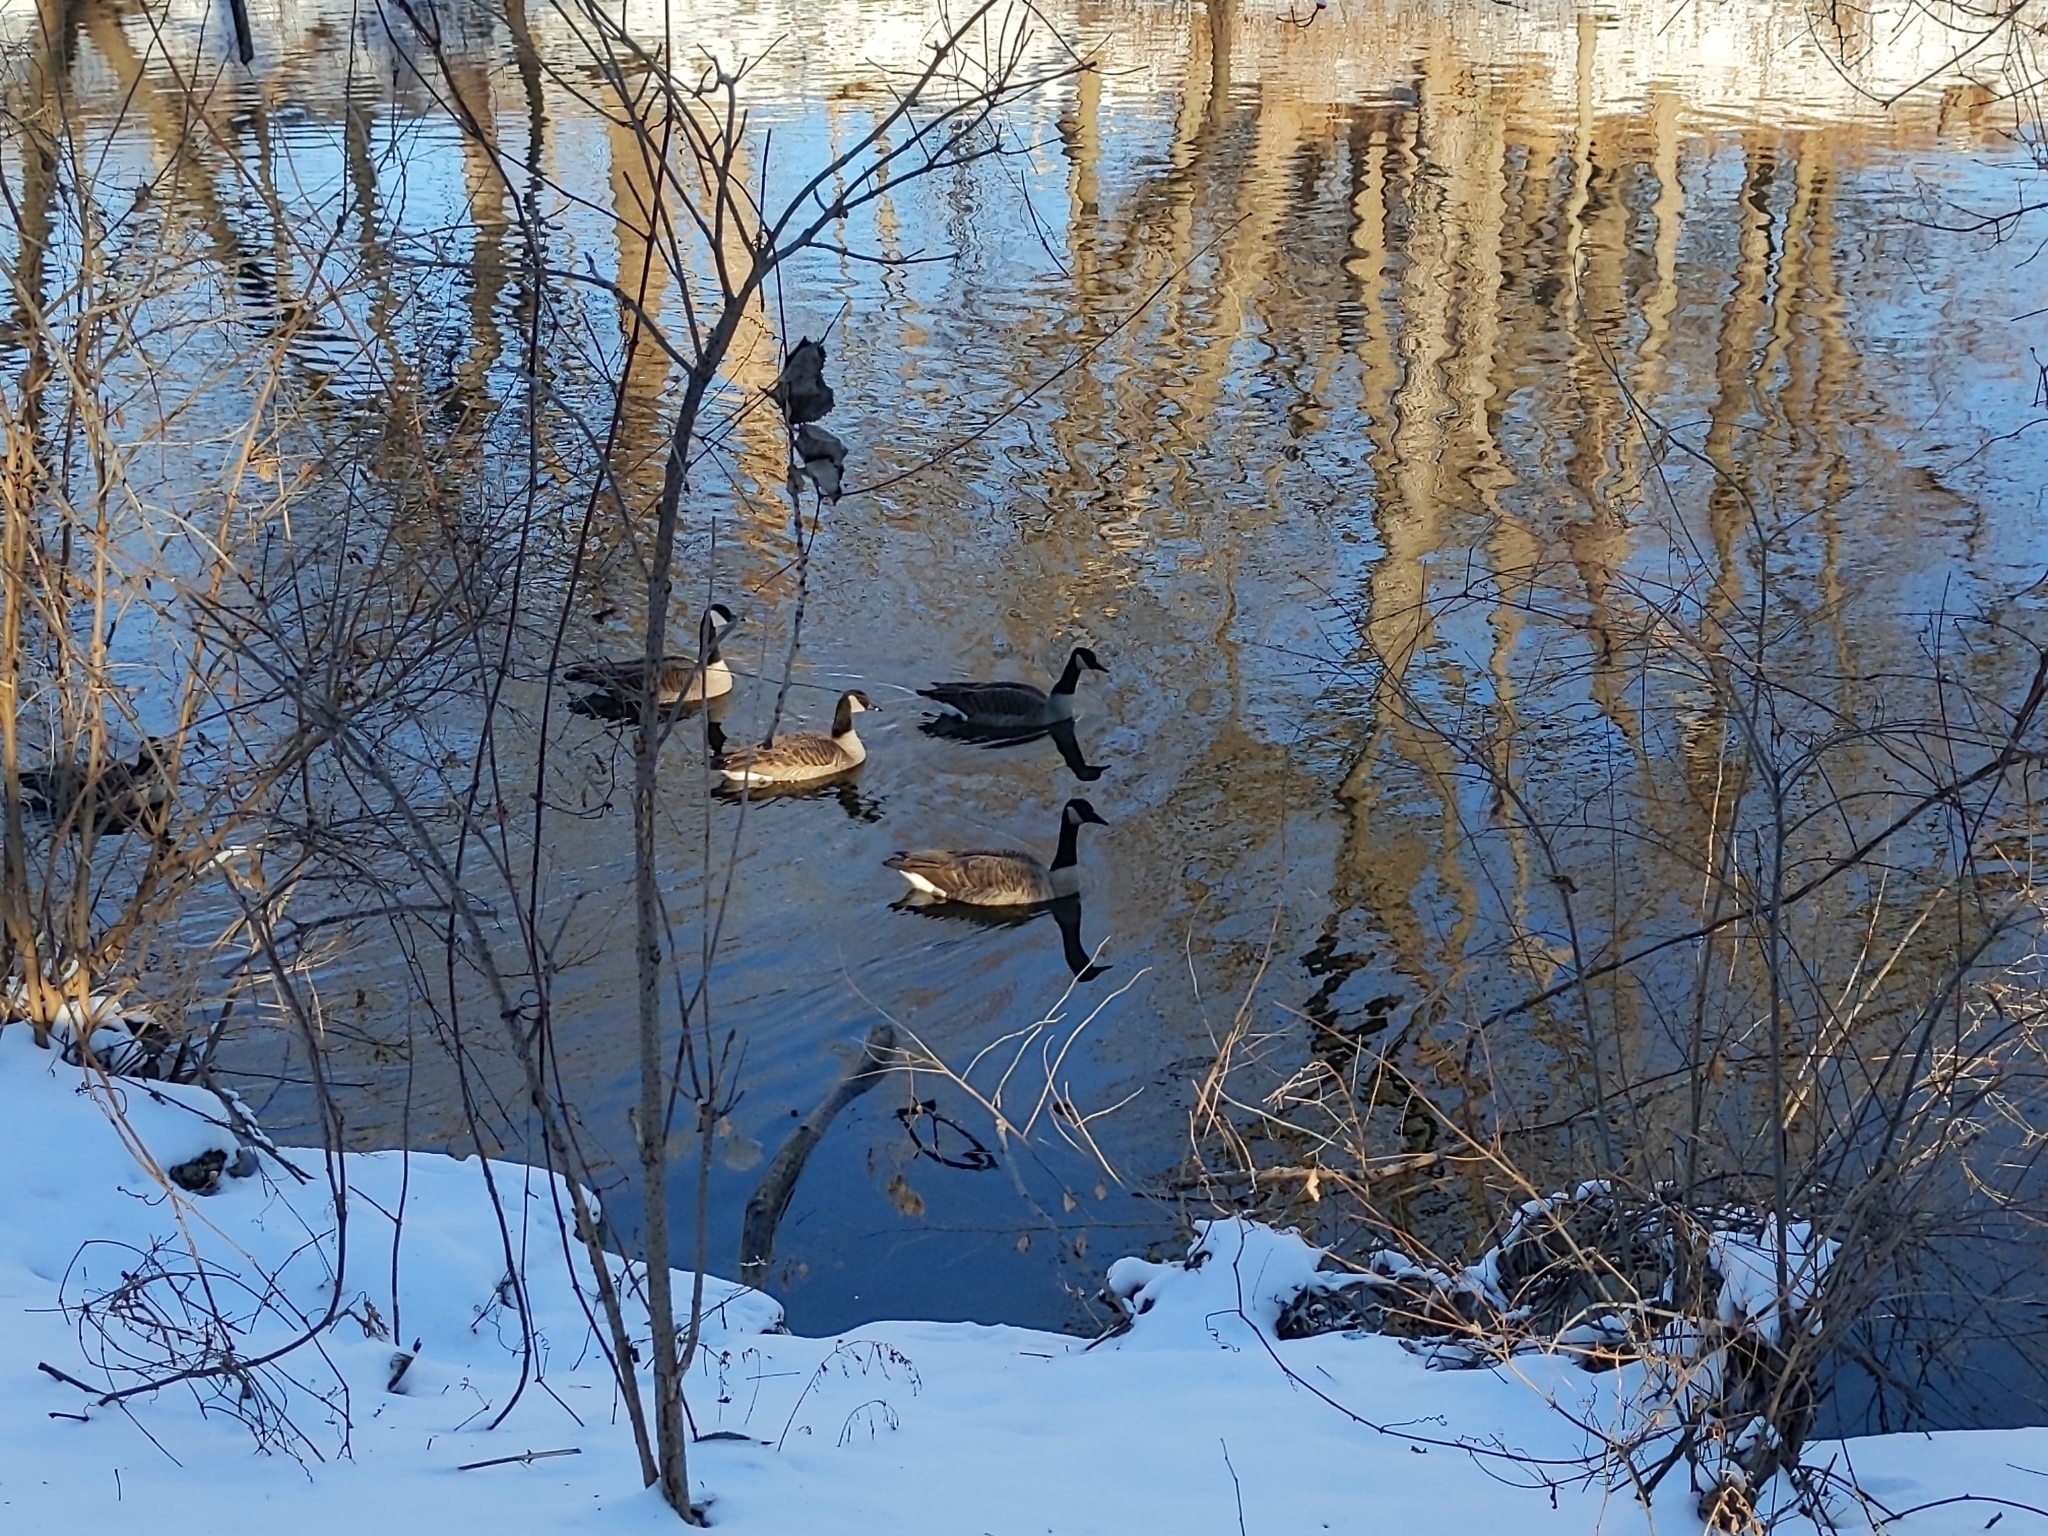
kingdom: Animalia
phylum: Chordata
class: Aves
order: Anseriformes
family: Anatidae
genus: Branta
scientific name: Branta canadensis
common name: Canada goose
